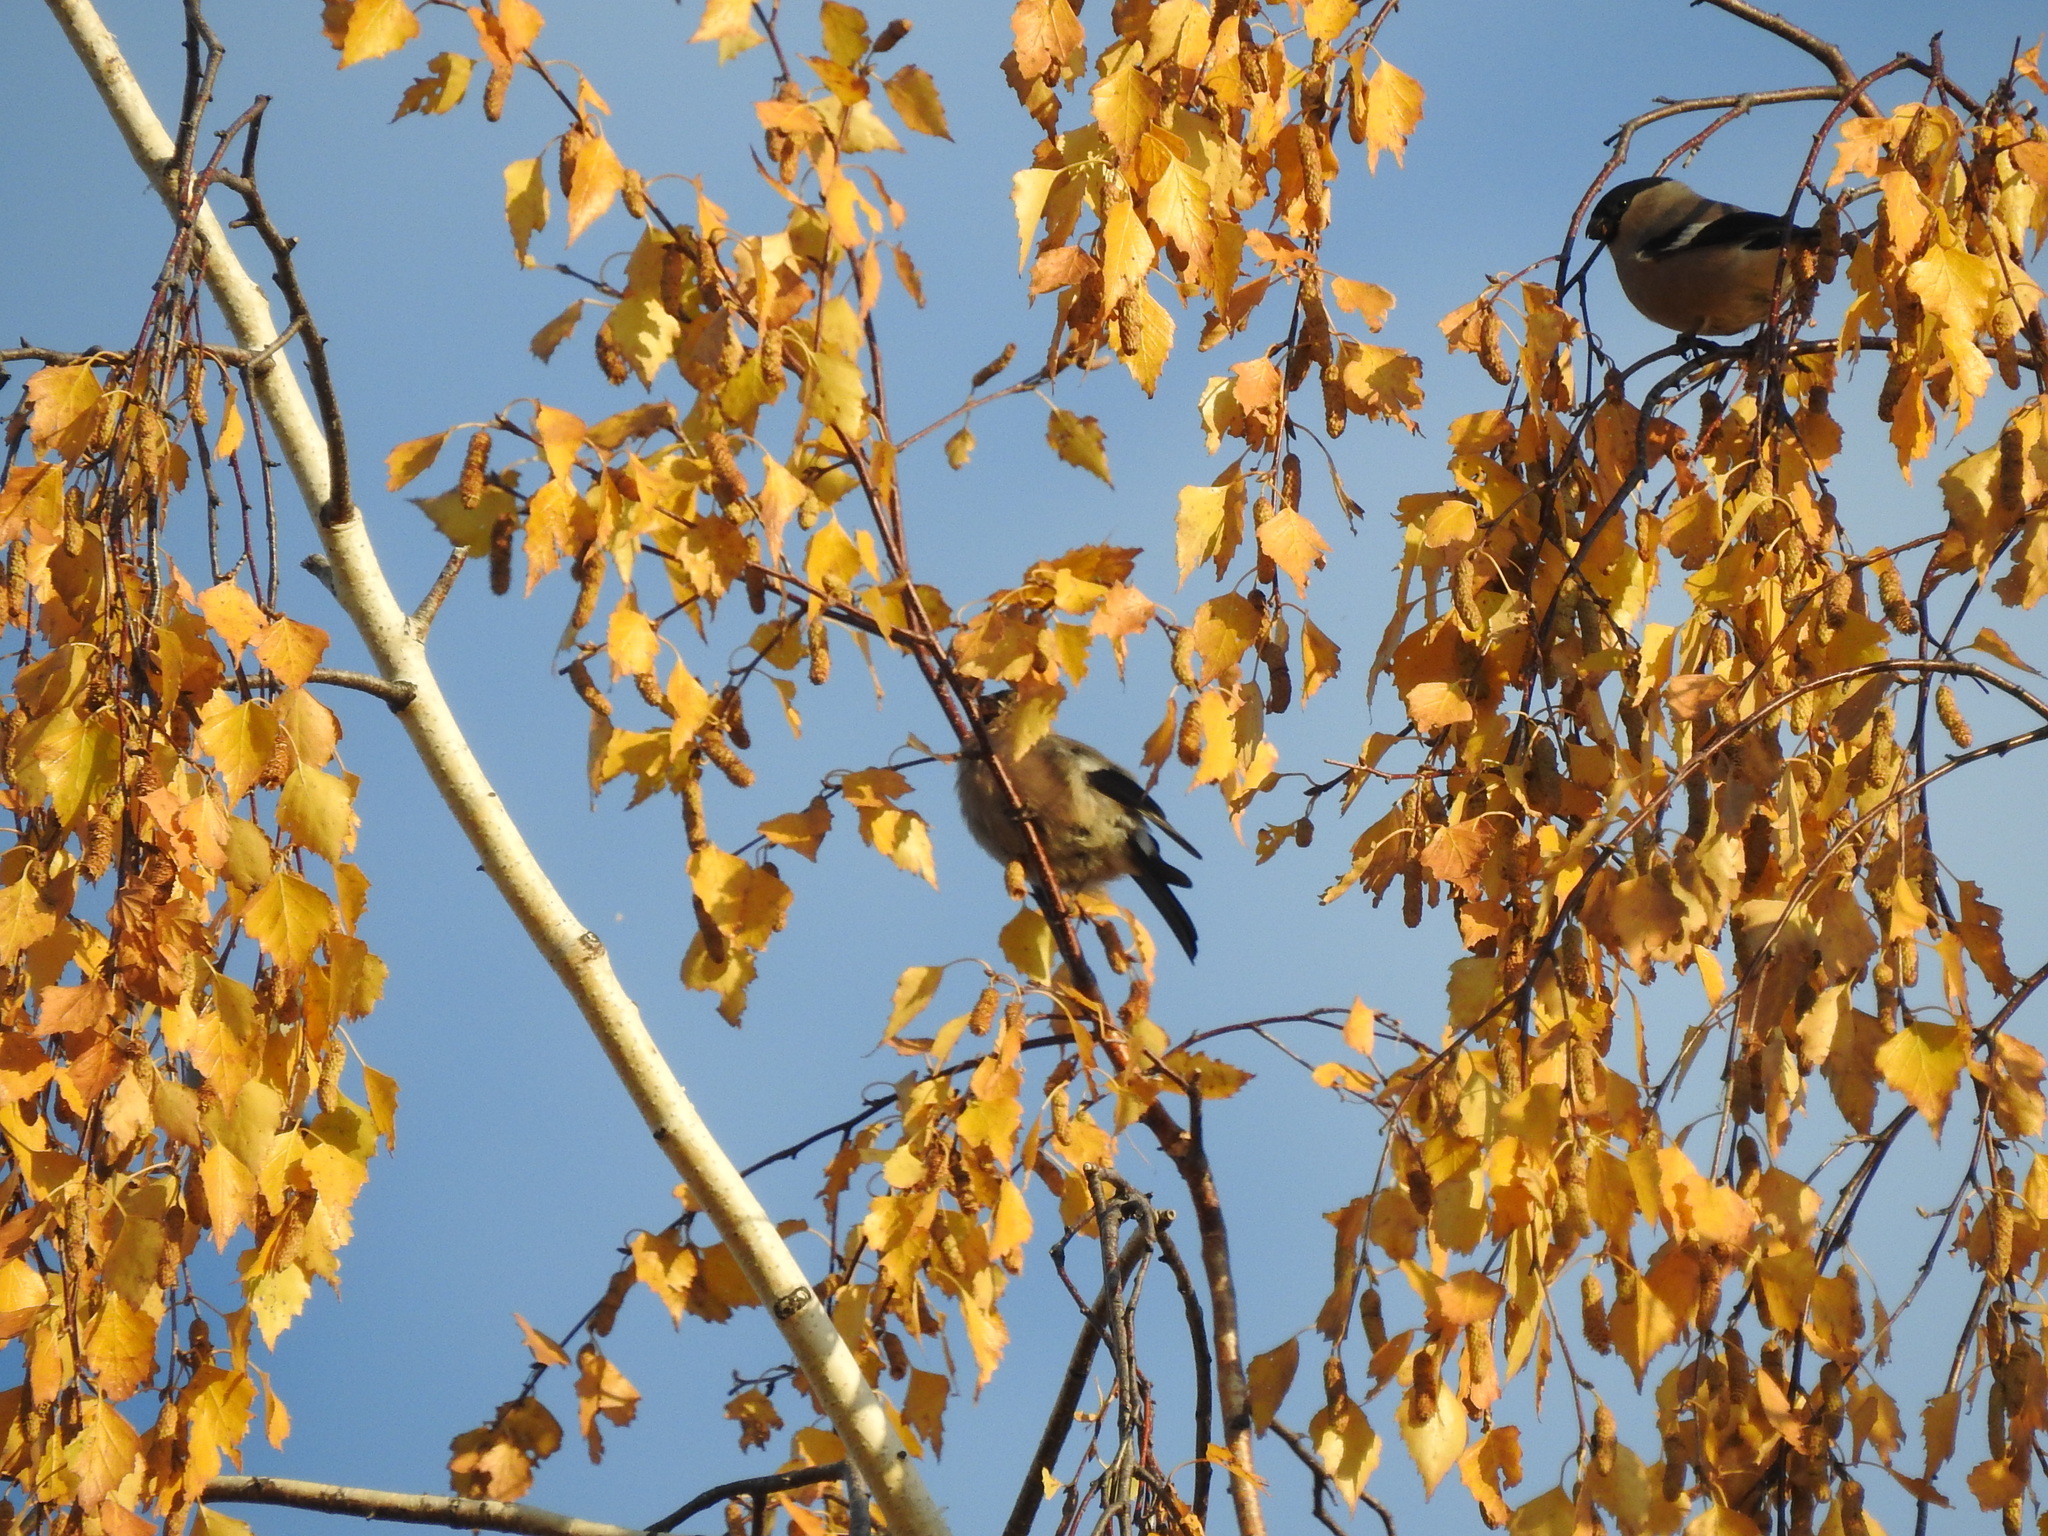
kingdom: Animalia
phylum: Chordata
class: Aves
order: Passeriformes
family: Fringillidae
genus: Pyrrhula
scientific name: Pyrrhula pyrrhula
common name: Eurasian bullfinch
